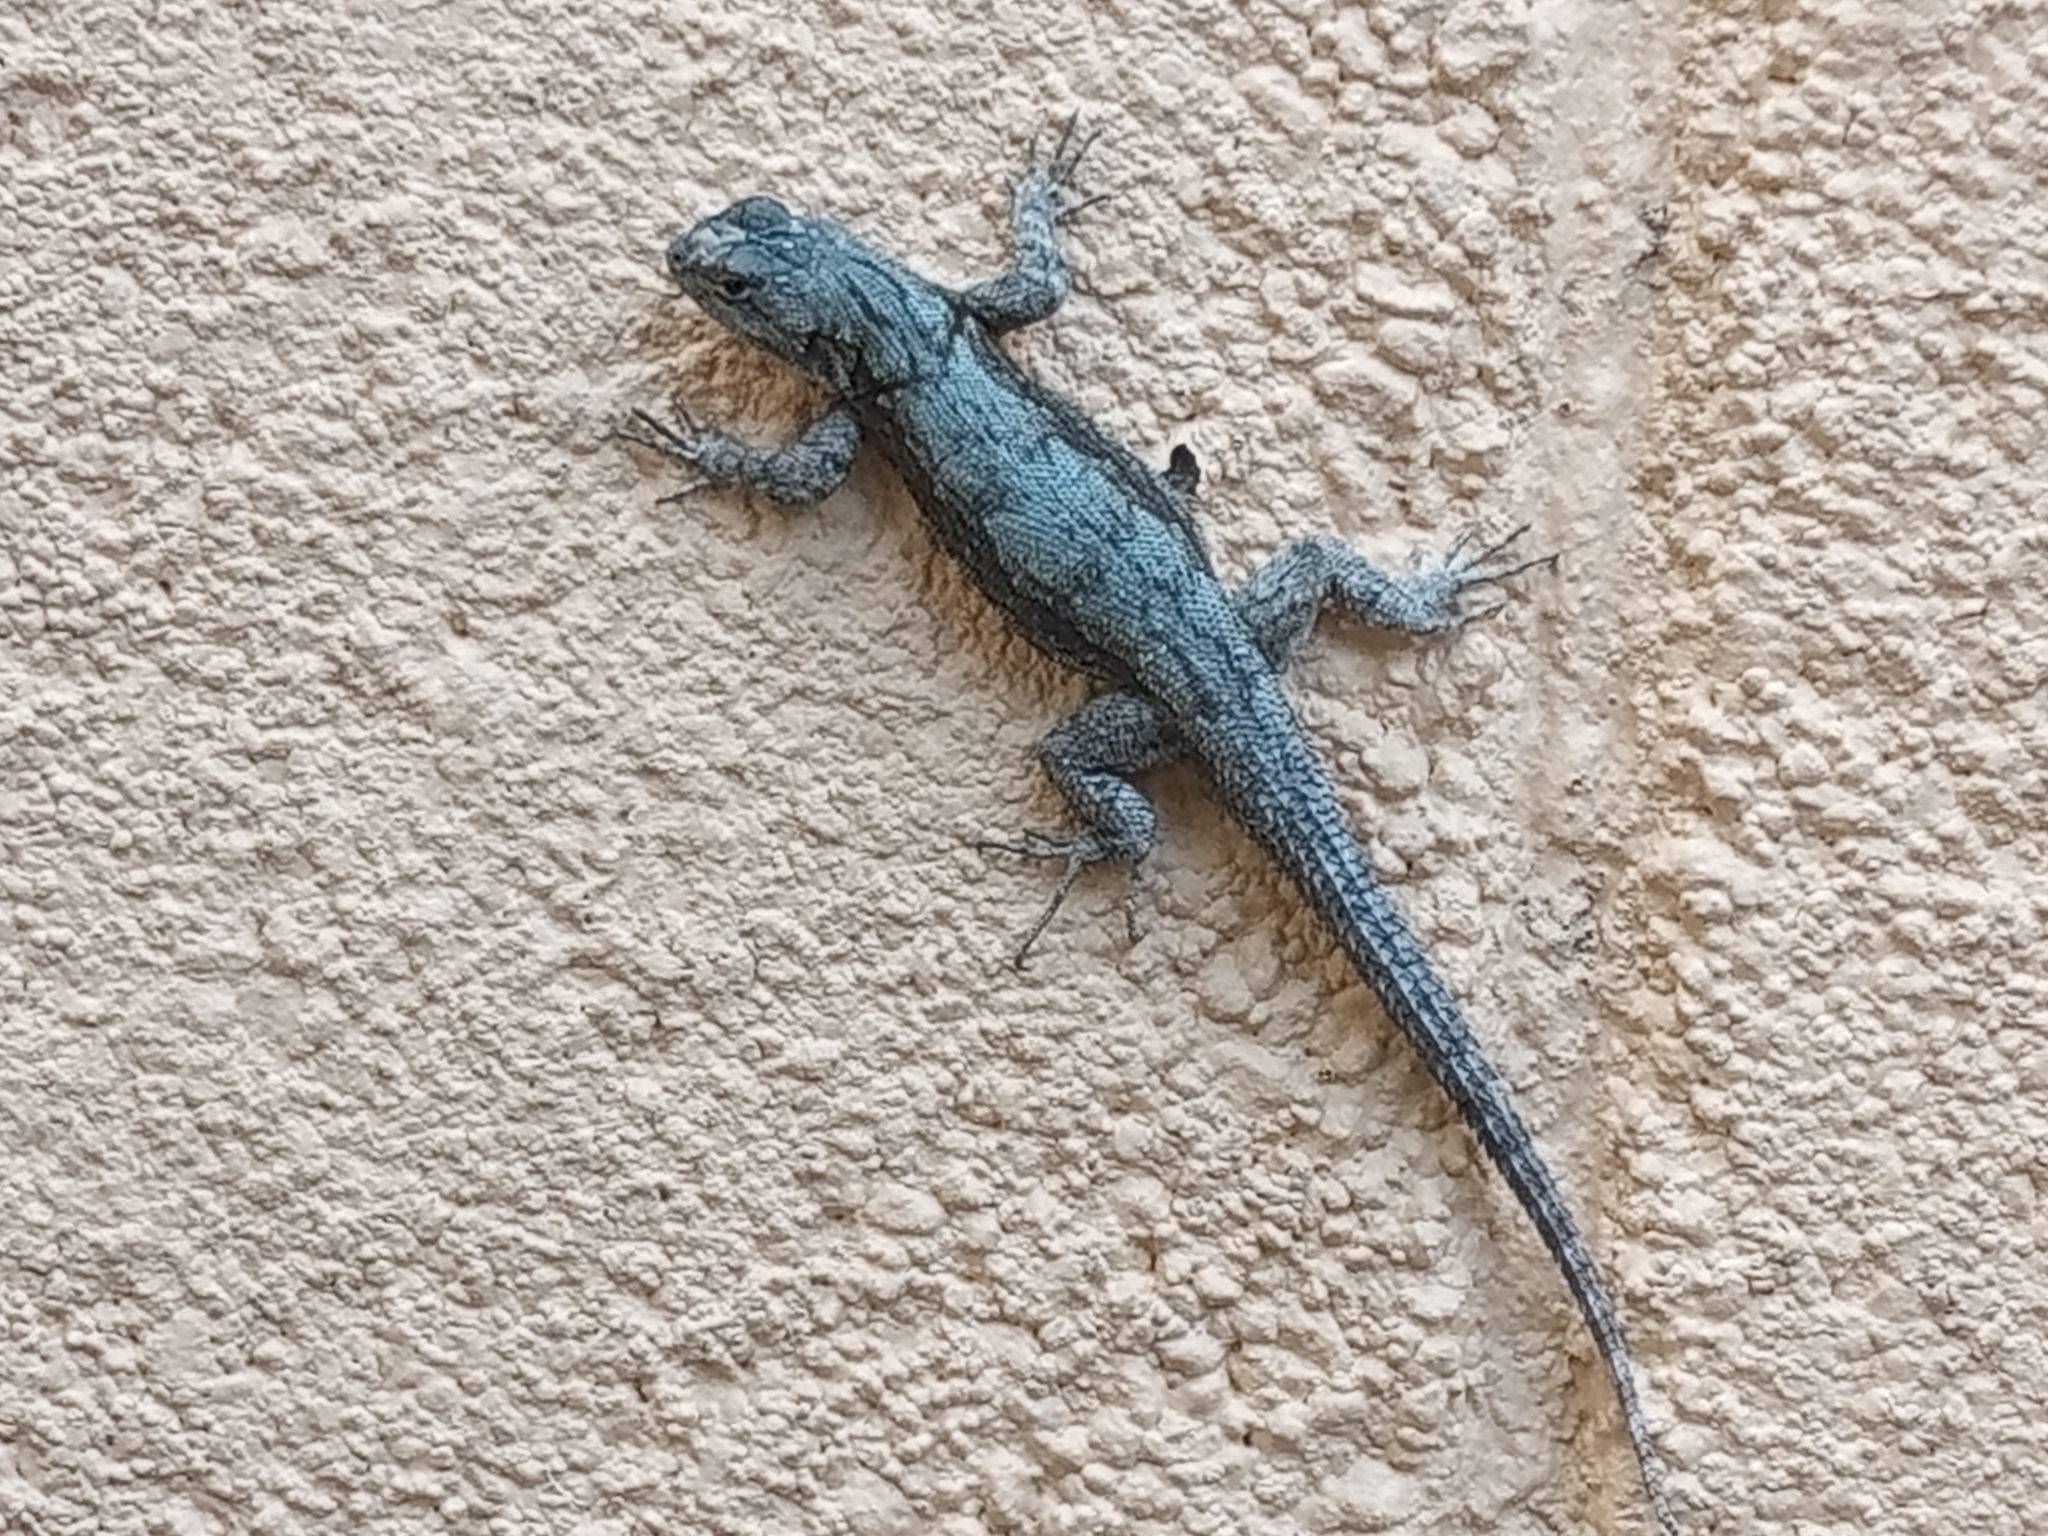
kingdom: Animalia
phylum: Chordata
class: Squamata
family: Phrynosomatidae
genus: Sceloporus
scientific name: Sceloporus grammicus
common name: Mesquite lizard
